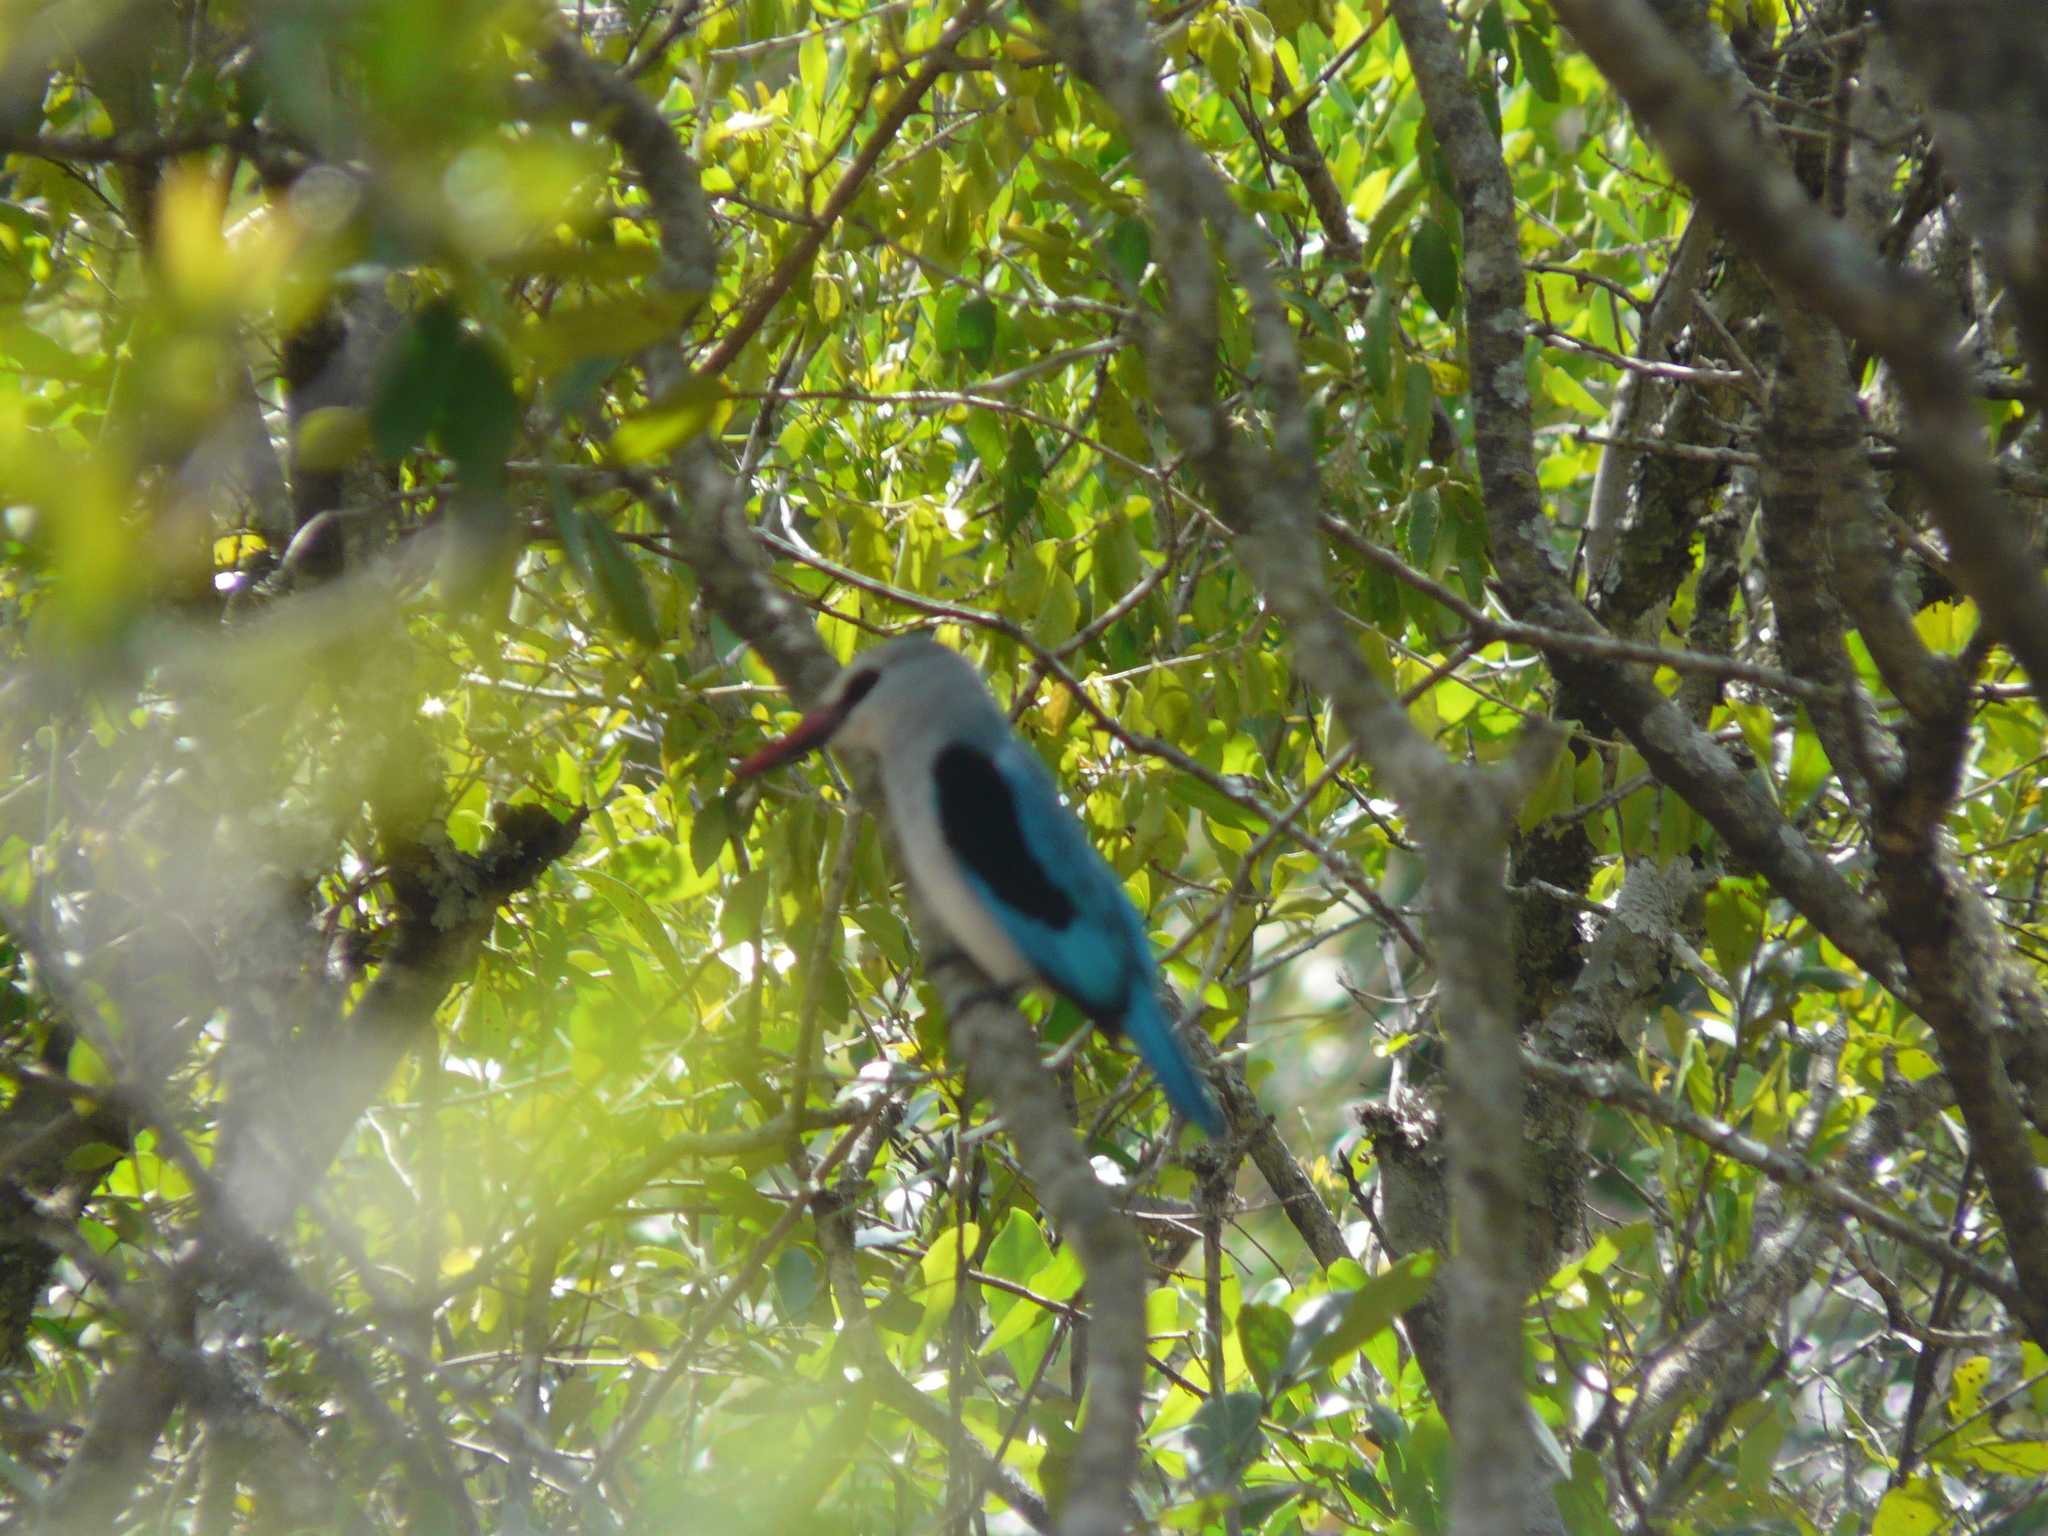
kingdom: Animalia
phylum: Chordata
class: Aves
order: Coraciiformes
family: Alcedinidae
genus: Halcyon
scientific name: Halcyon senegalensis
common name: Woodland kingfisher
